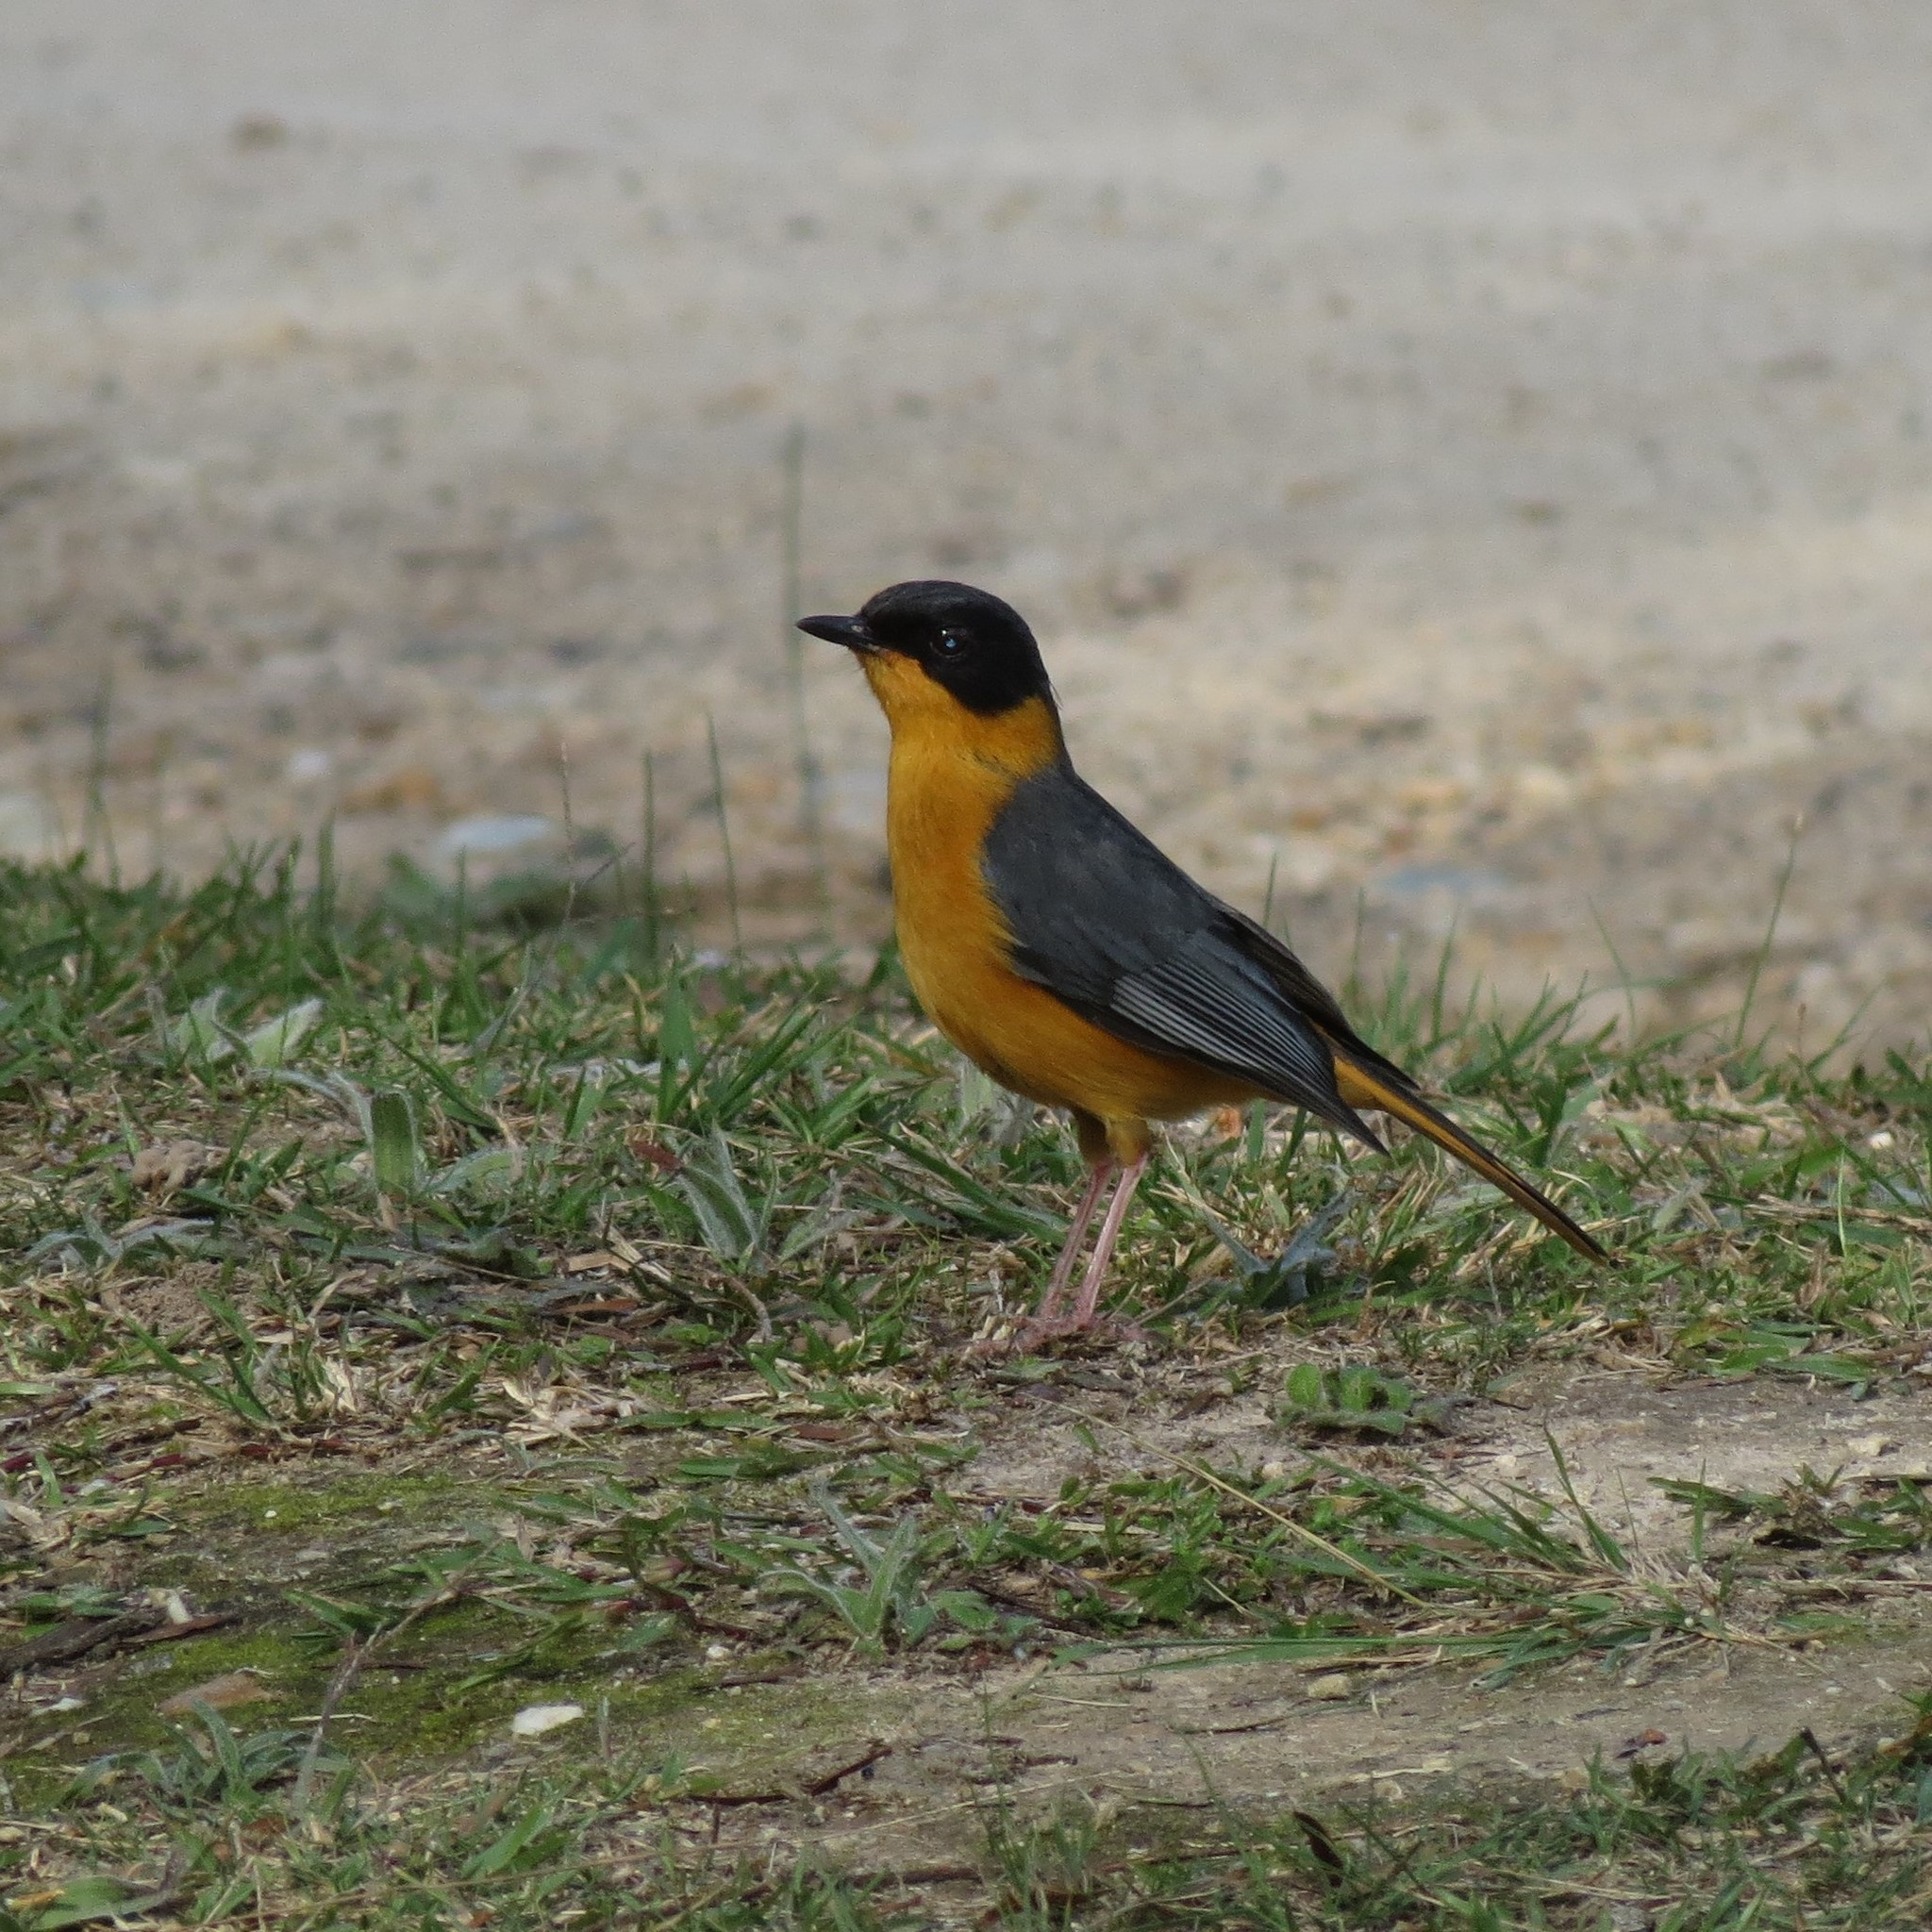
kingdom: Animalia
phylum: Chordata
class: Aves
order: Passeriformes
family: Muscicapidae
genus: Cossypha
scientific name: Cossypha dichroa
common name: Chorister robin-chat
